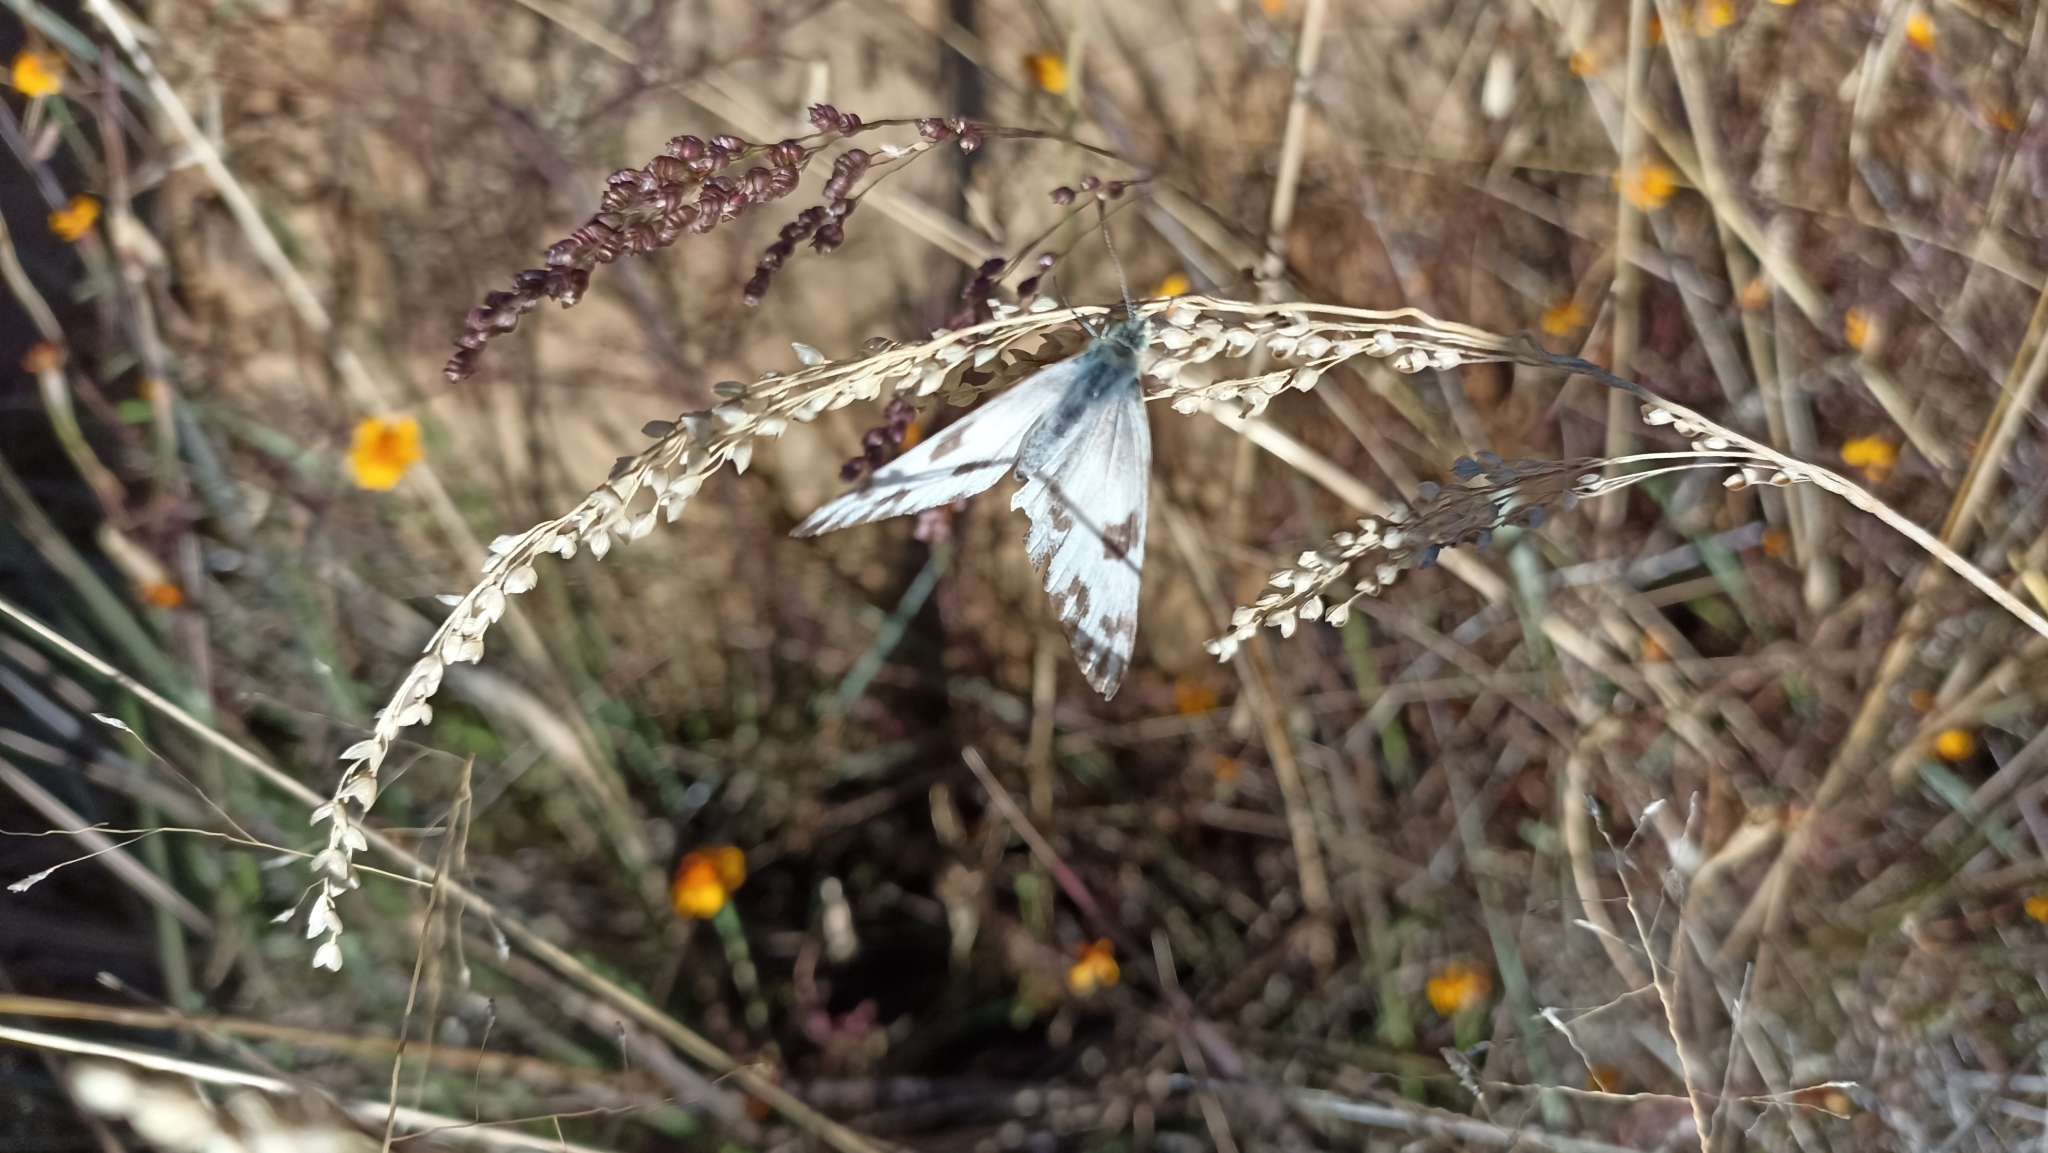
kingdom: Animalia
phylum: Arthropoda
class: Insecta
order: Lepidoptera
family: Pieridae
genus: Pontia
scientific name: Pontia protodice
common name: Checkered white
